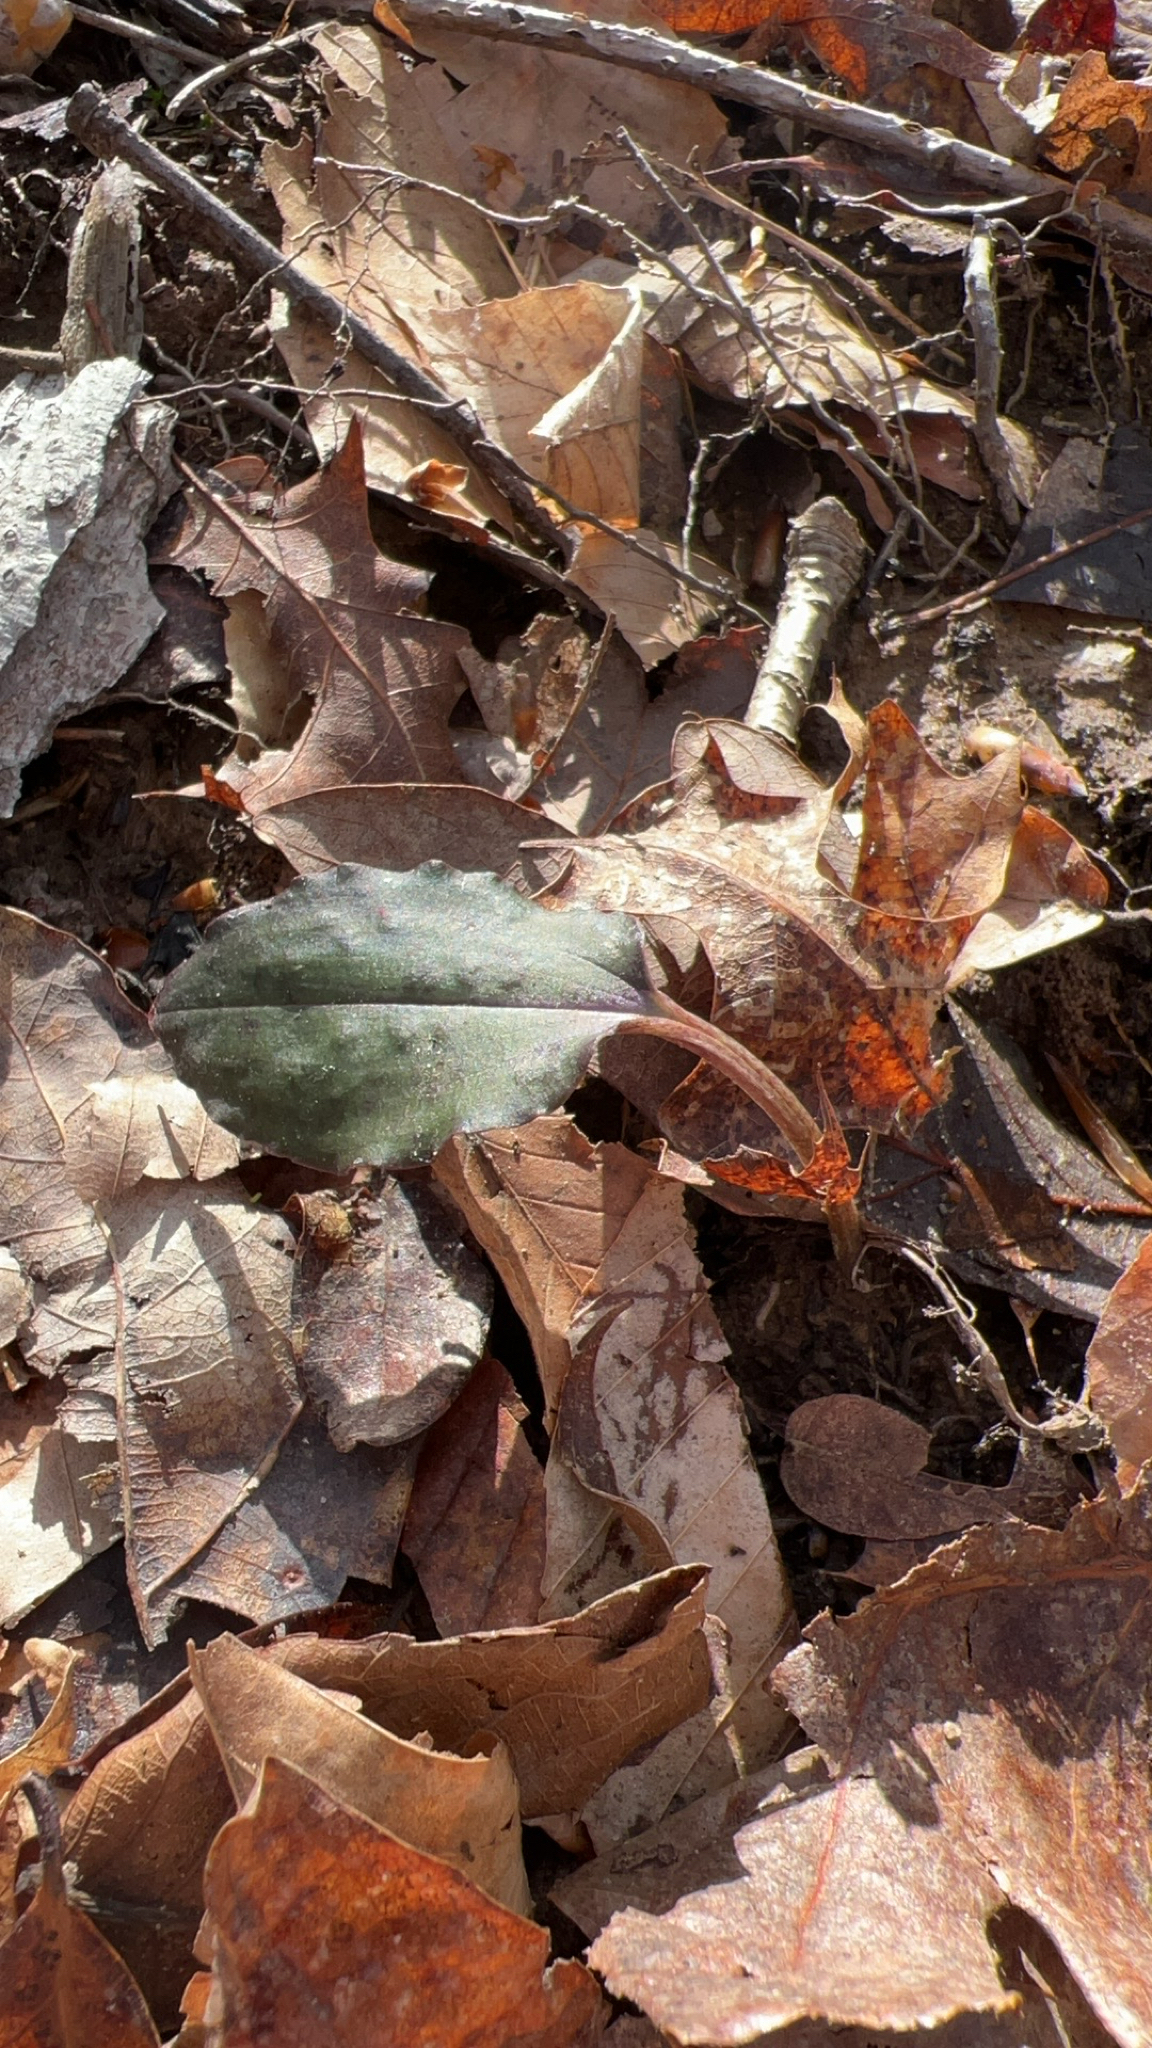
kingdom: Plantae
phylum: Tracheophyta
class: Liliopsida
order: Asparagales
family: Orchidaceae
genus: Tipularia
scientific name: Tipularia discolor
